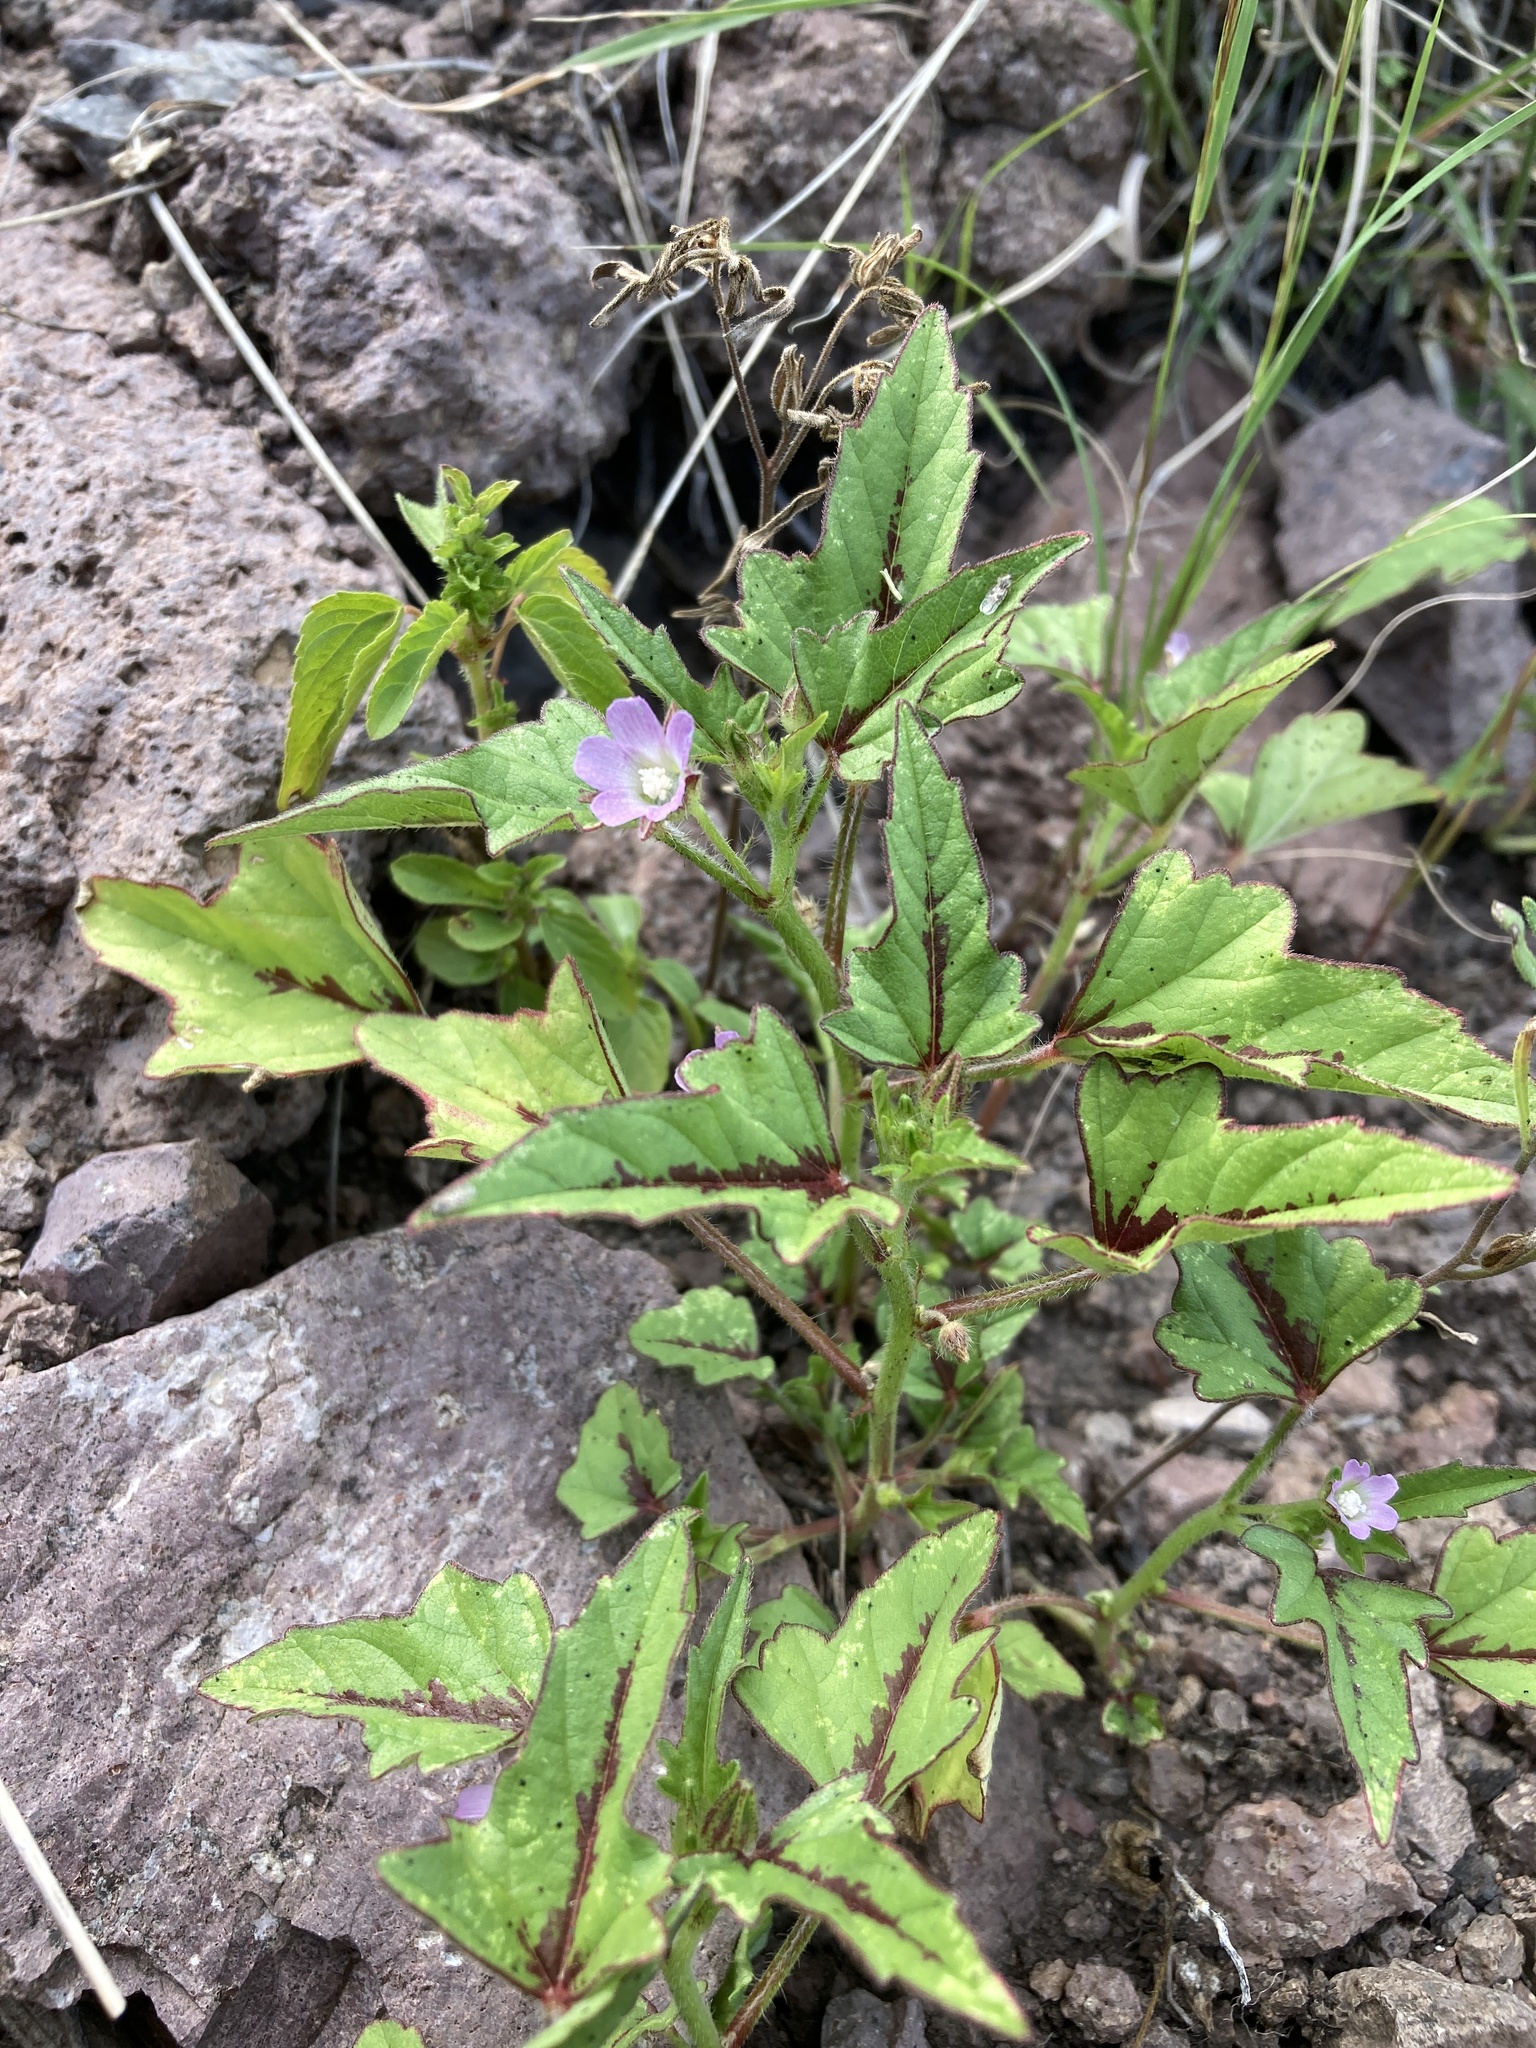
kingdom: Plantae
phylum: Tracheophyta
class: Magnoliopsida
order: Malvales
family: Malvaceae
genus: Anoda
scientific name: Anoda cristata
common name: Spurred anoda
